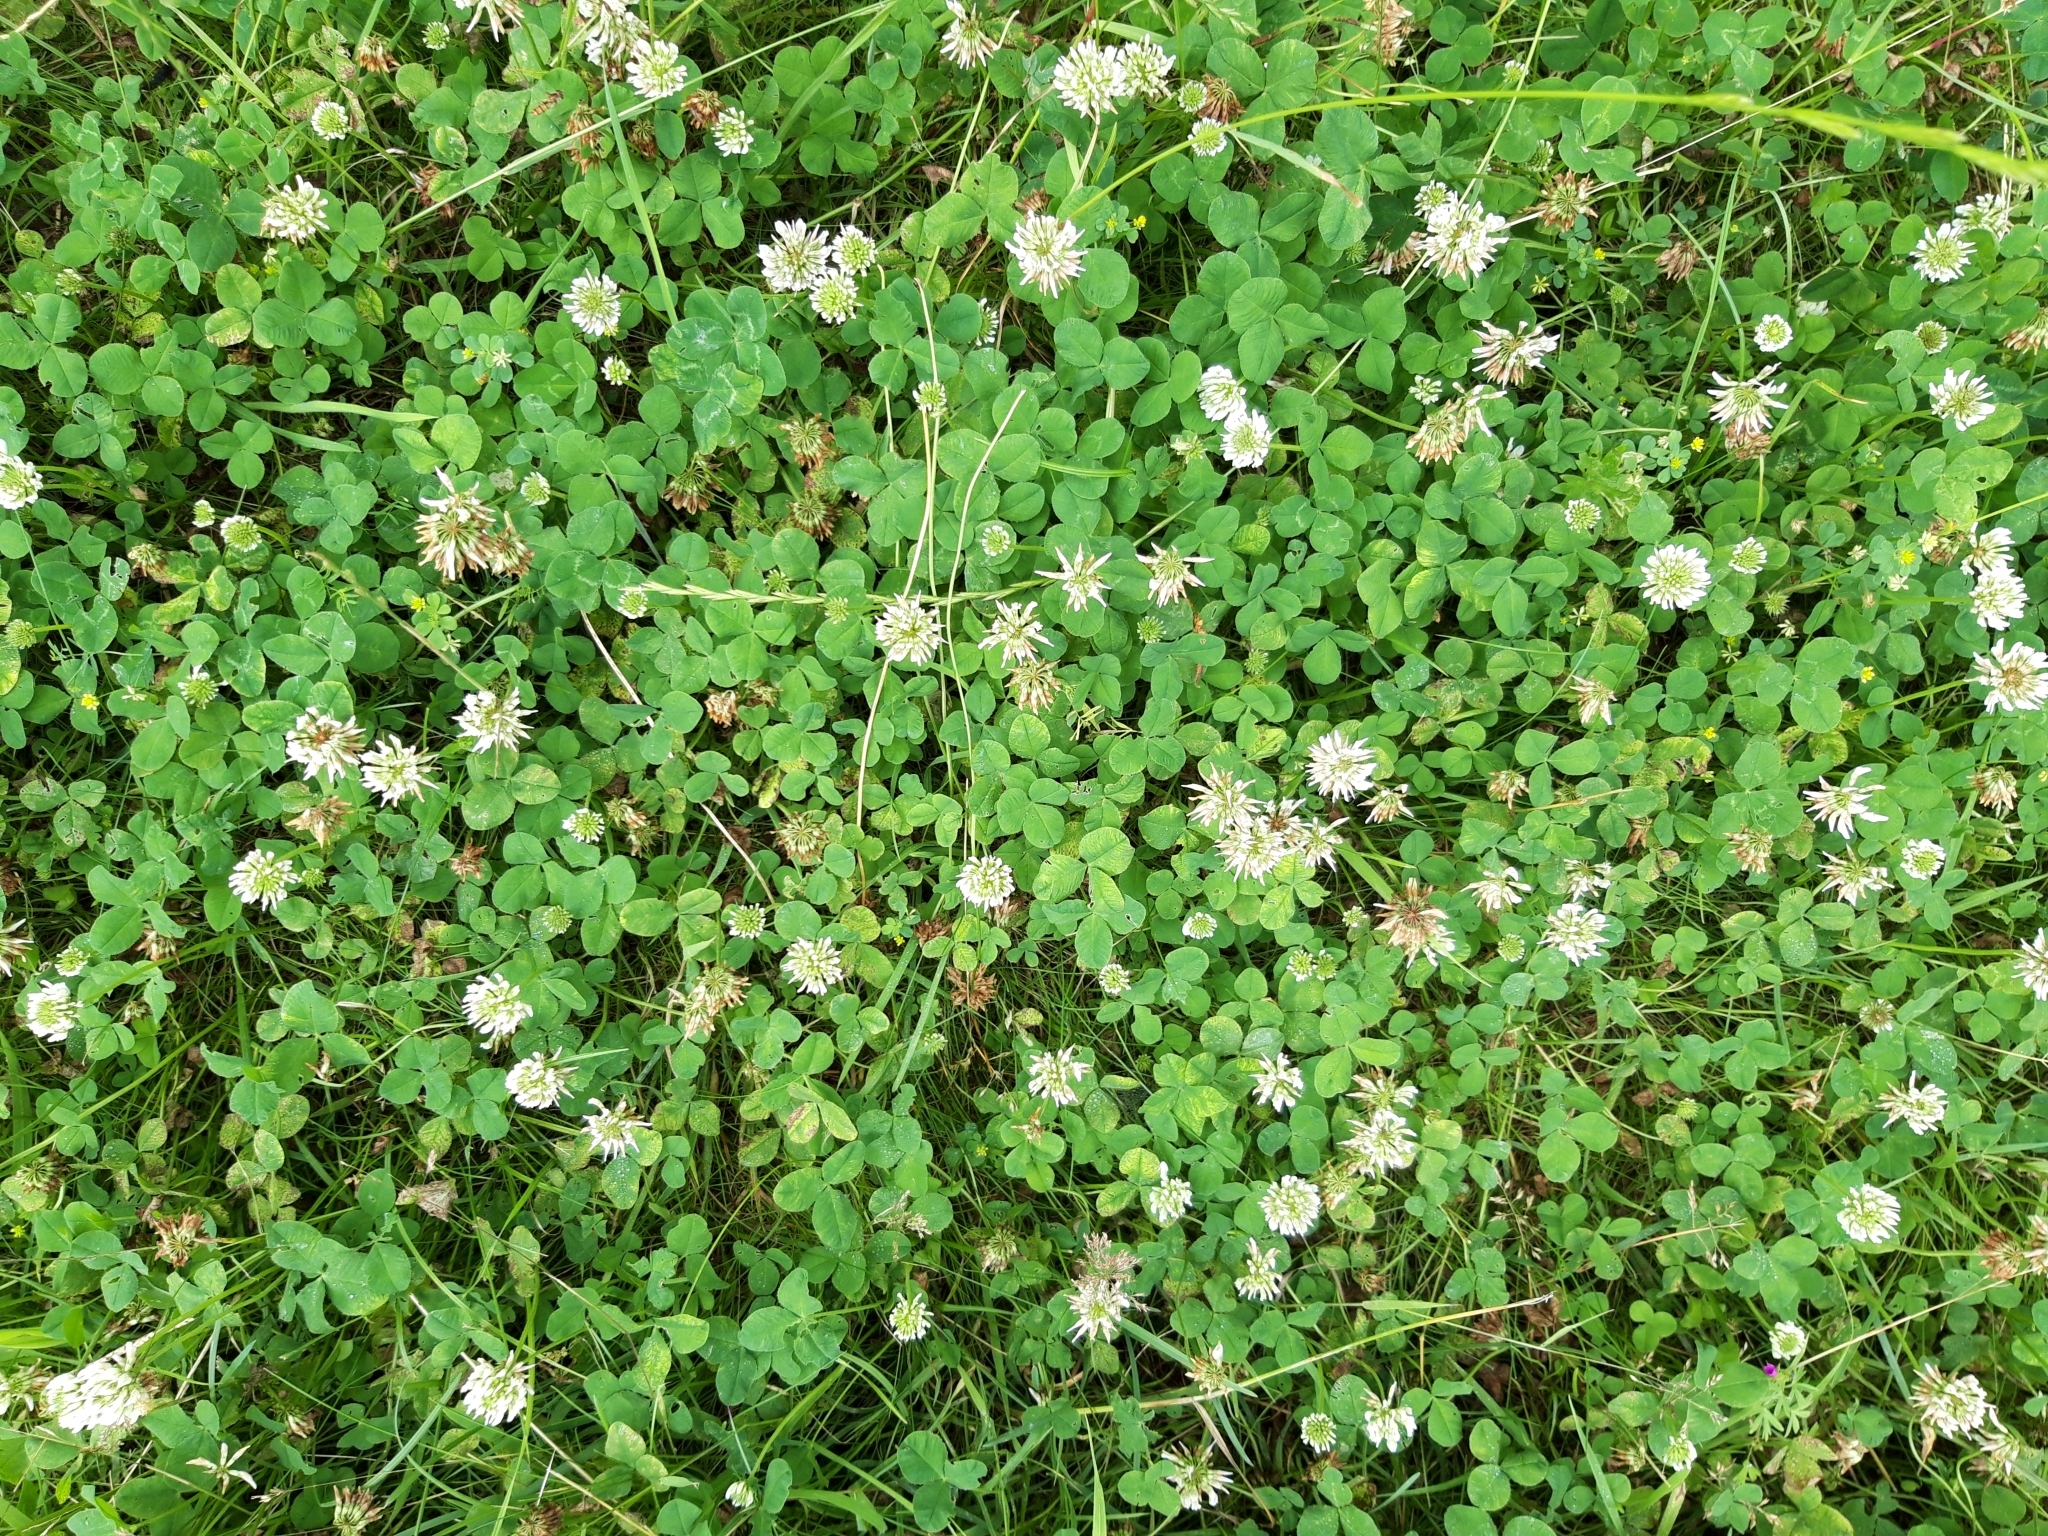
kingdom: Plantae
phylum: Tracheophyta
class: Magnoliopsida
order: Fabales
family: Fabaceae
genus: Trifolium
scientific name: Trifolium repens
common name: White clover
